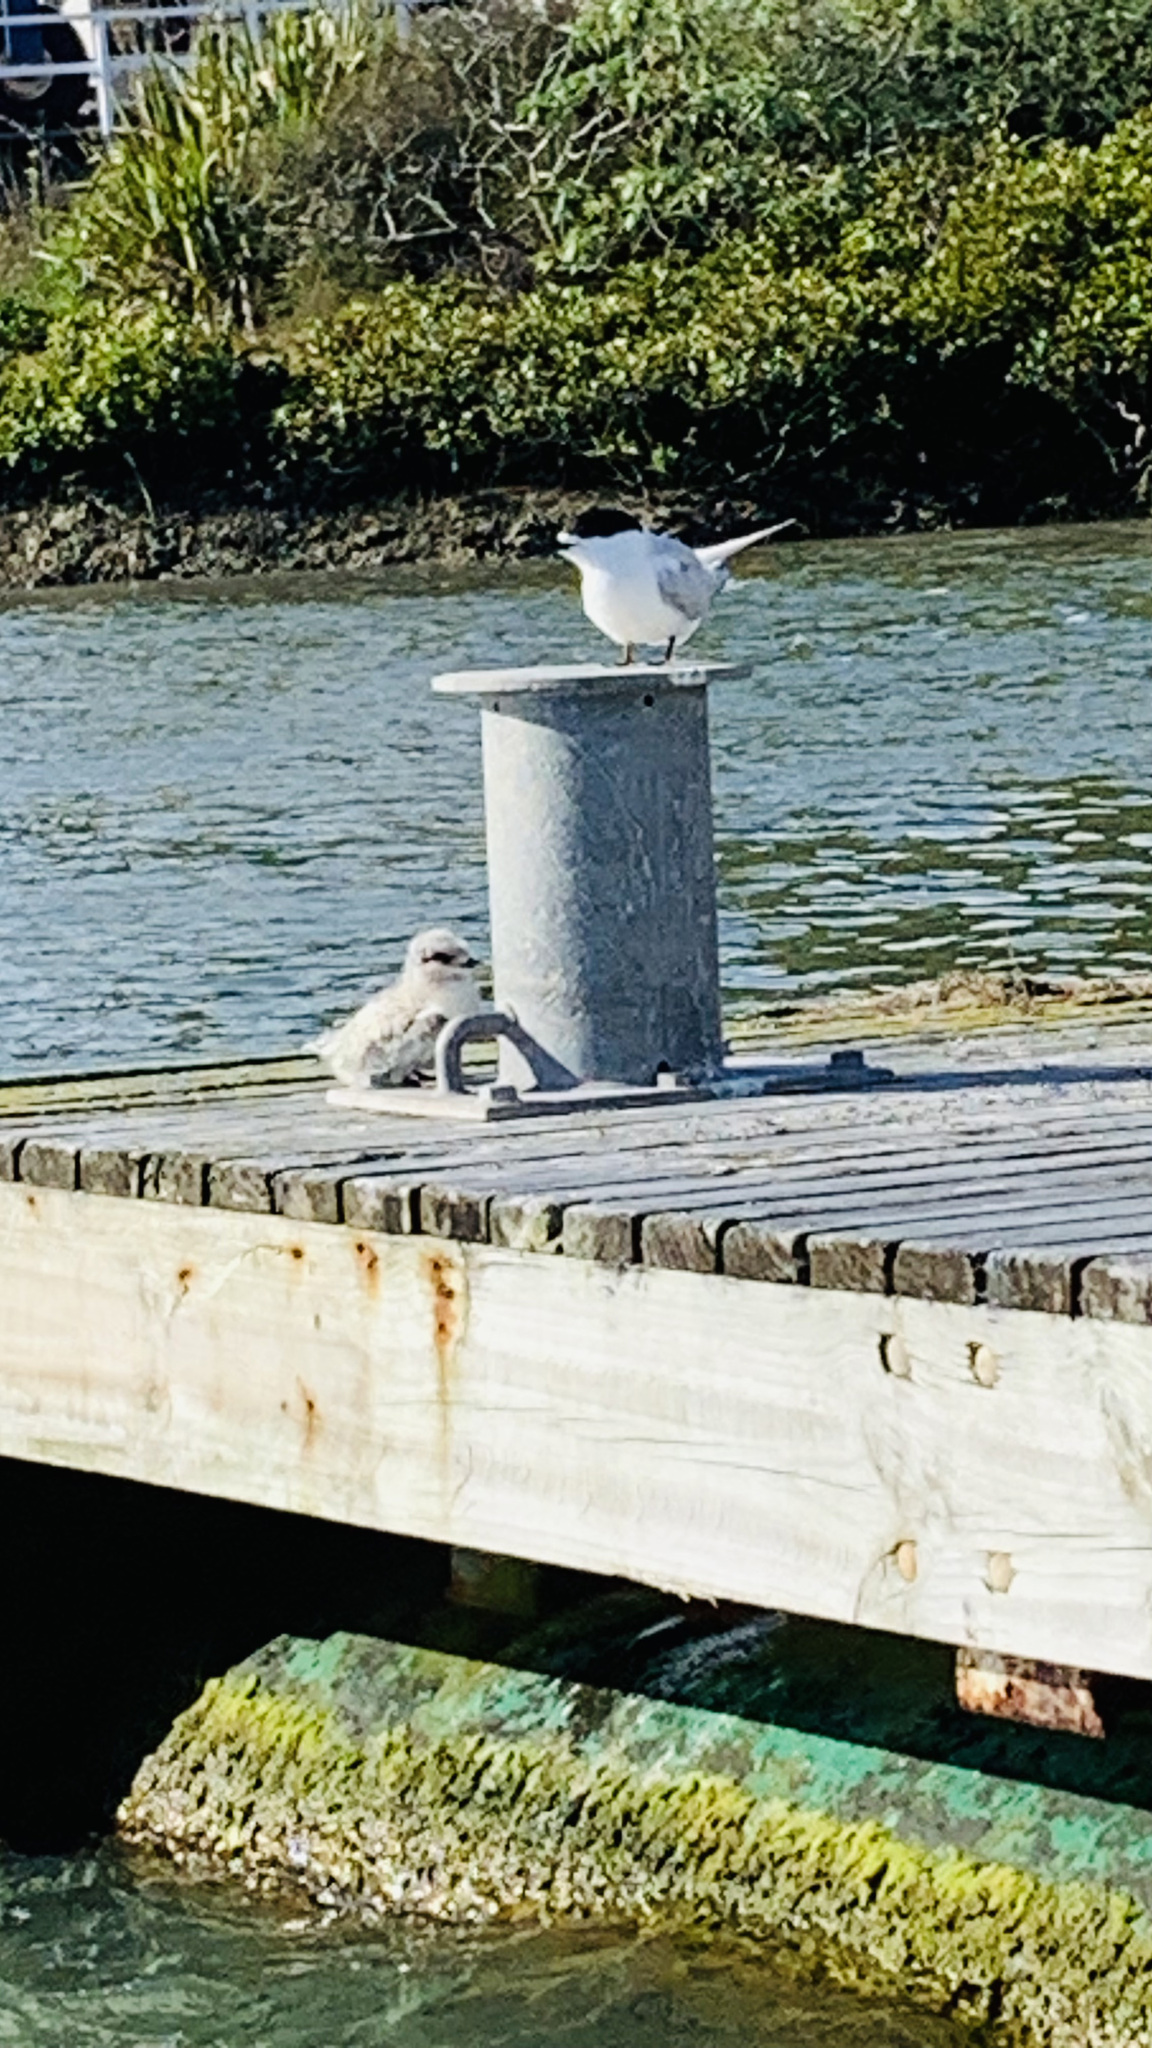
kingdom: Animalia
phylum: Chordata
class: Aves
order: Charadriiformes
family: Laridae
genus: Sterna
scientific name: Sterna striata
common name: White-fronted tern
